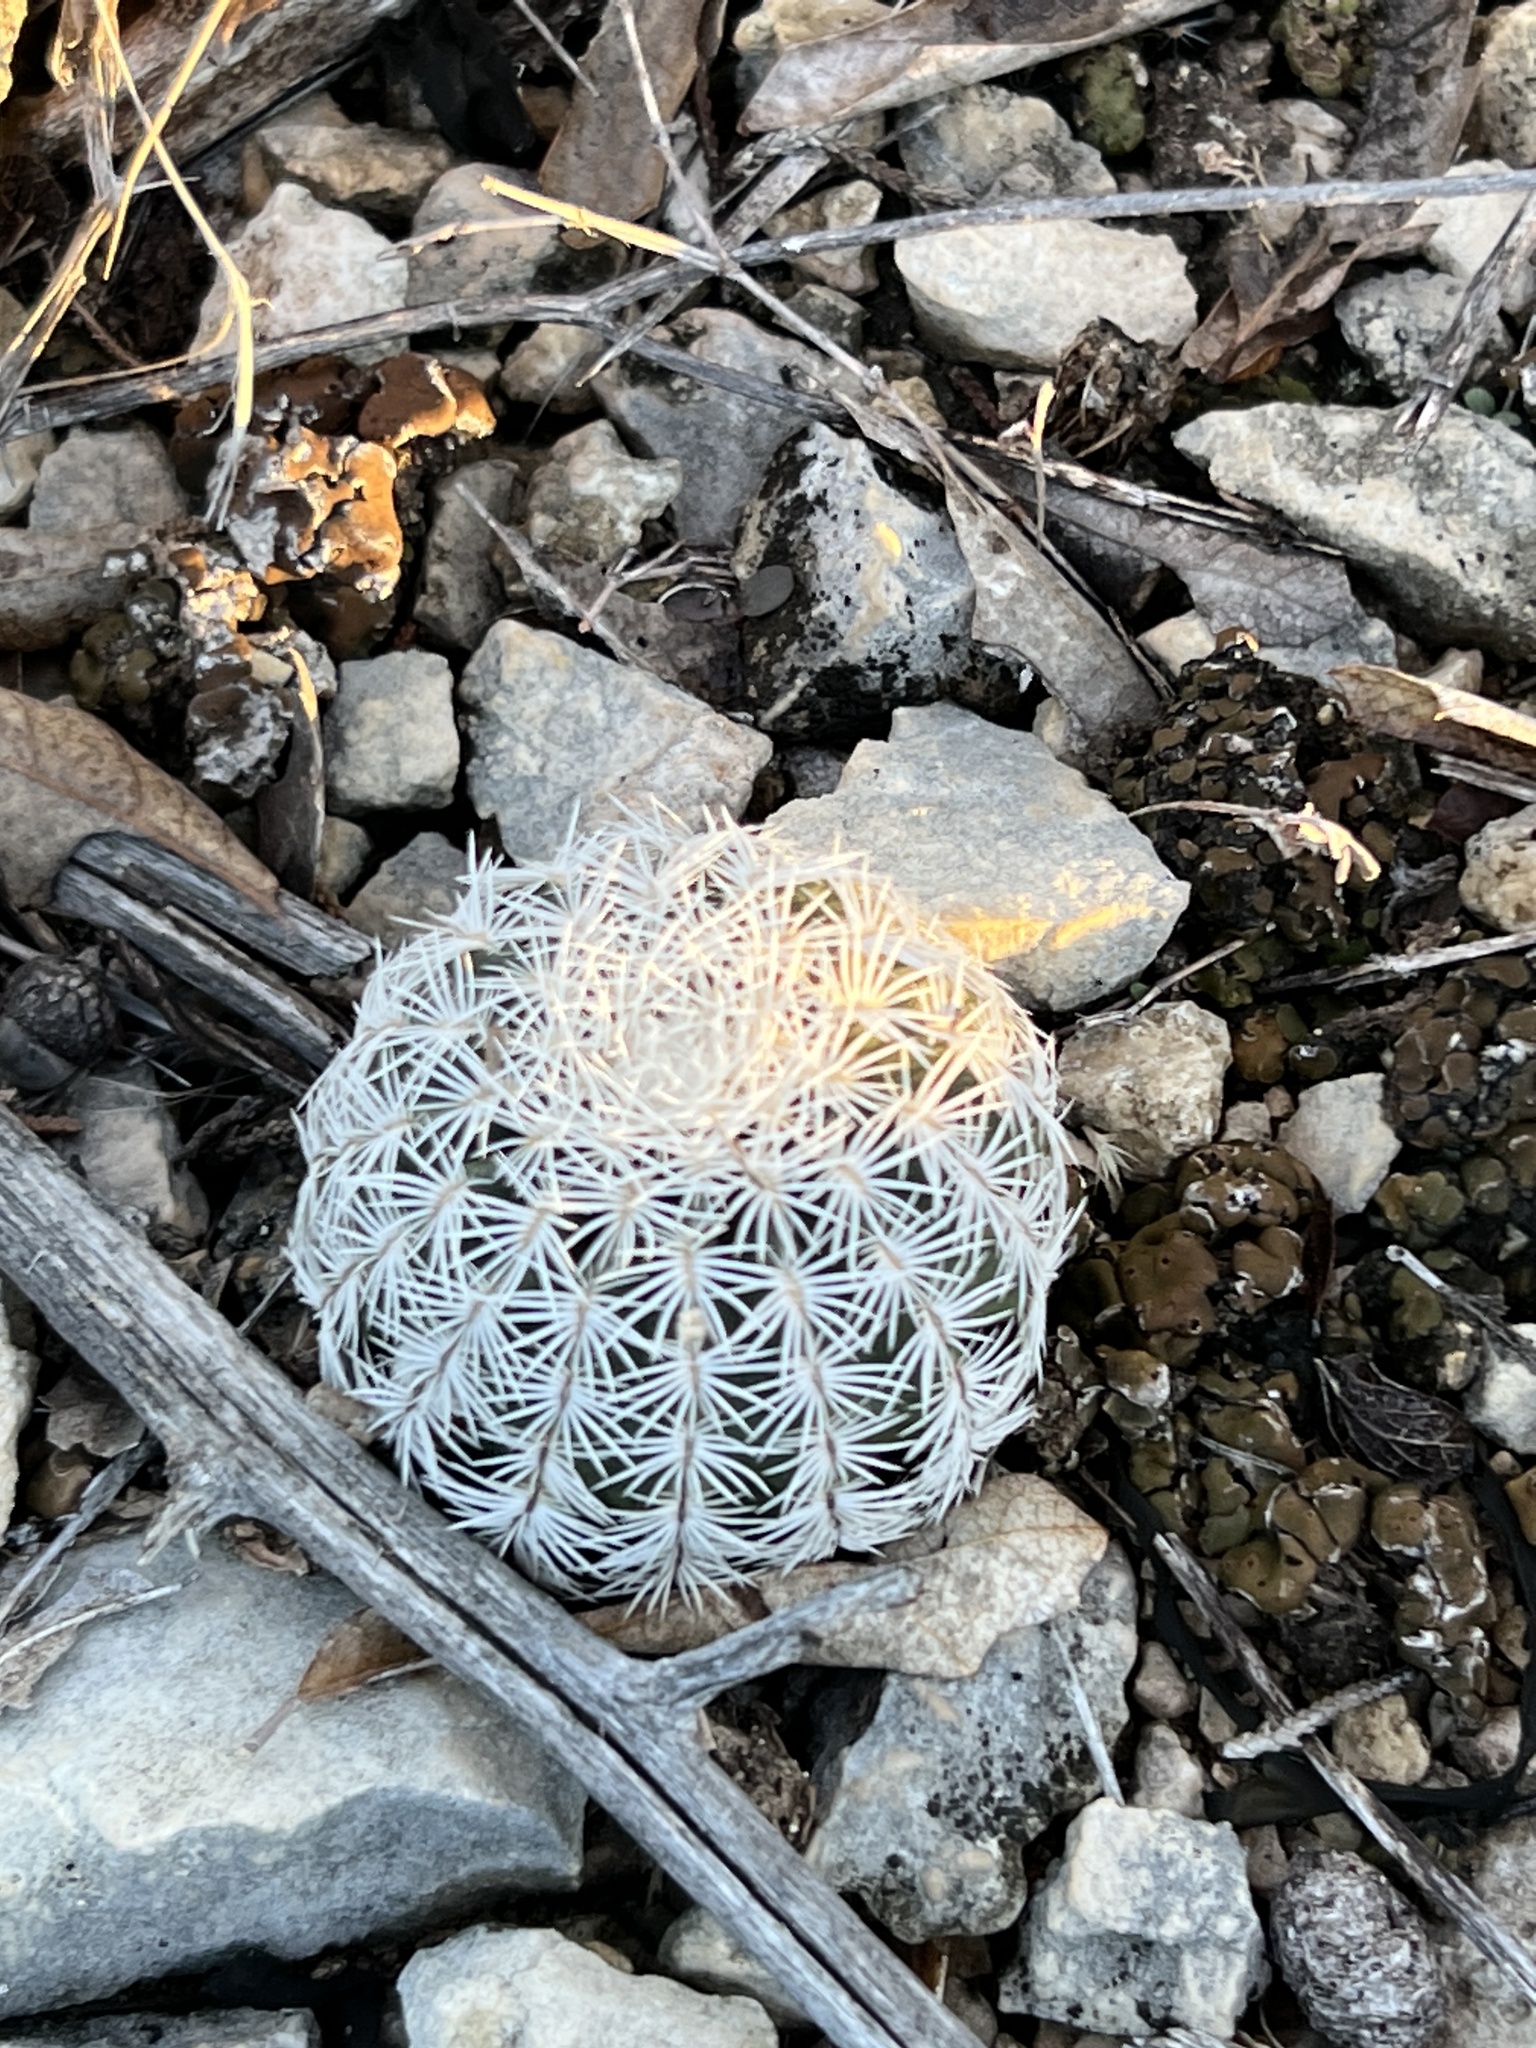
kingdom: Plantae
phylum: Tracheophyta
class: Magnoliopsida
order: Caryophyllales
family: Cactaceae
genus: Echinocereus
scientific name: Echinocereus reichenbachii
